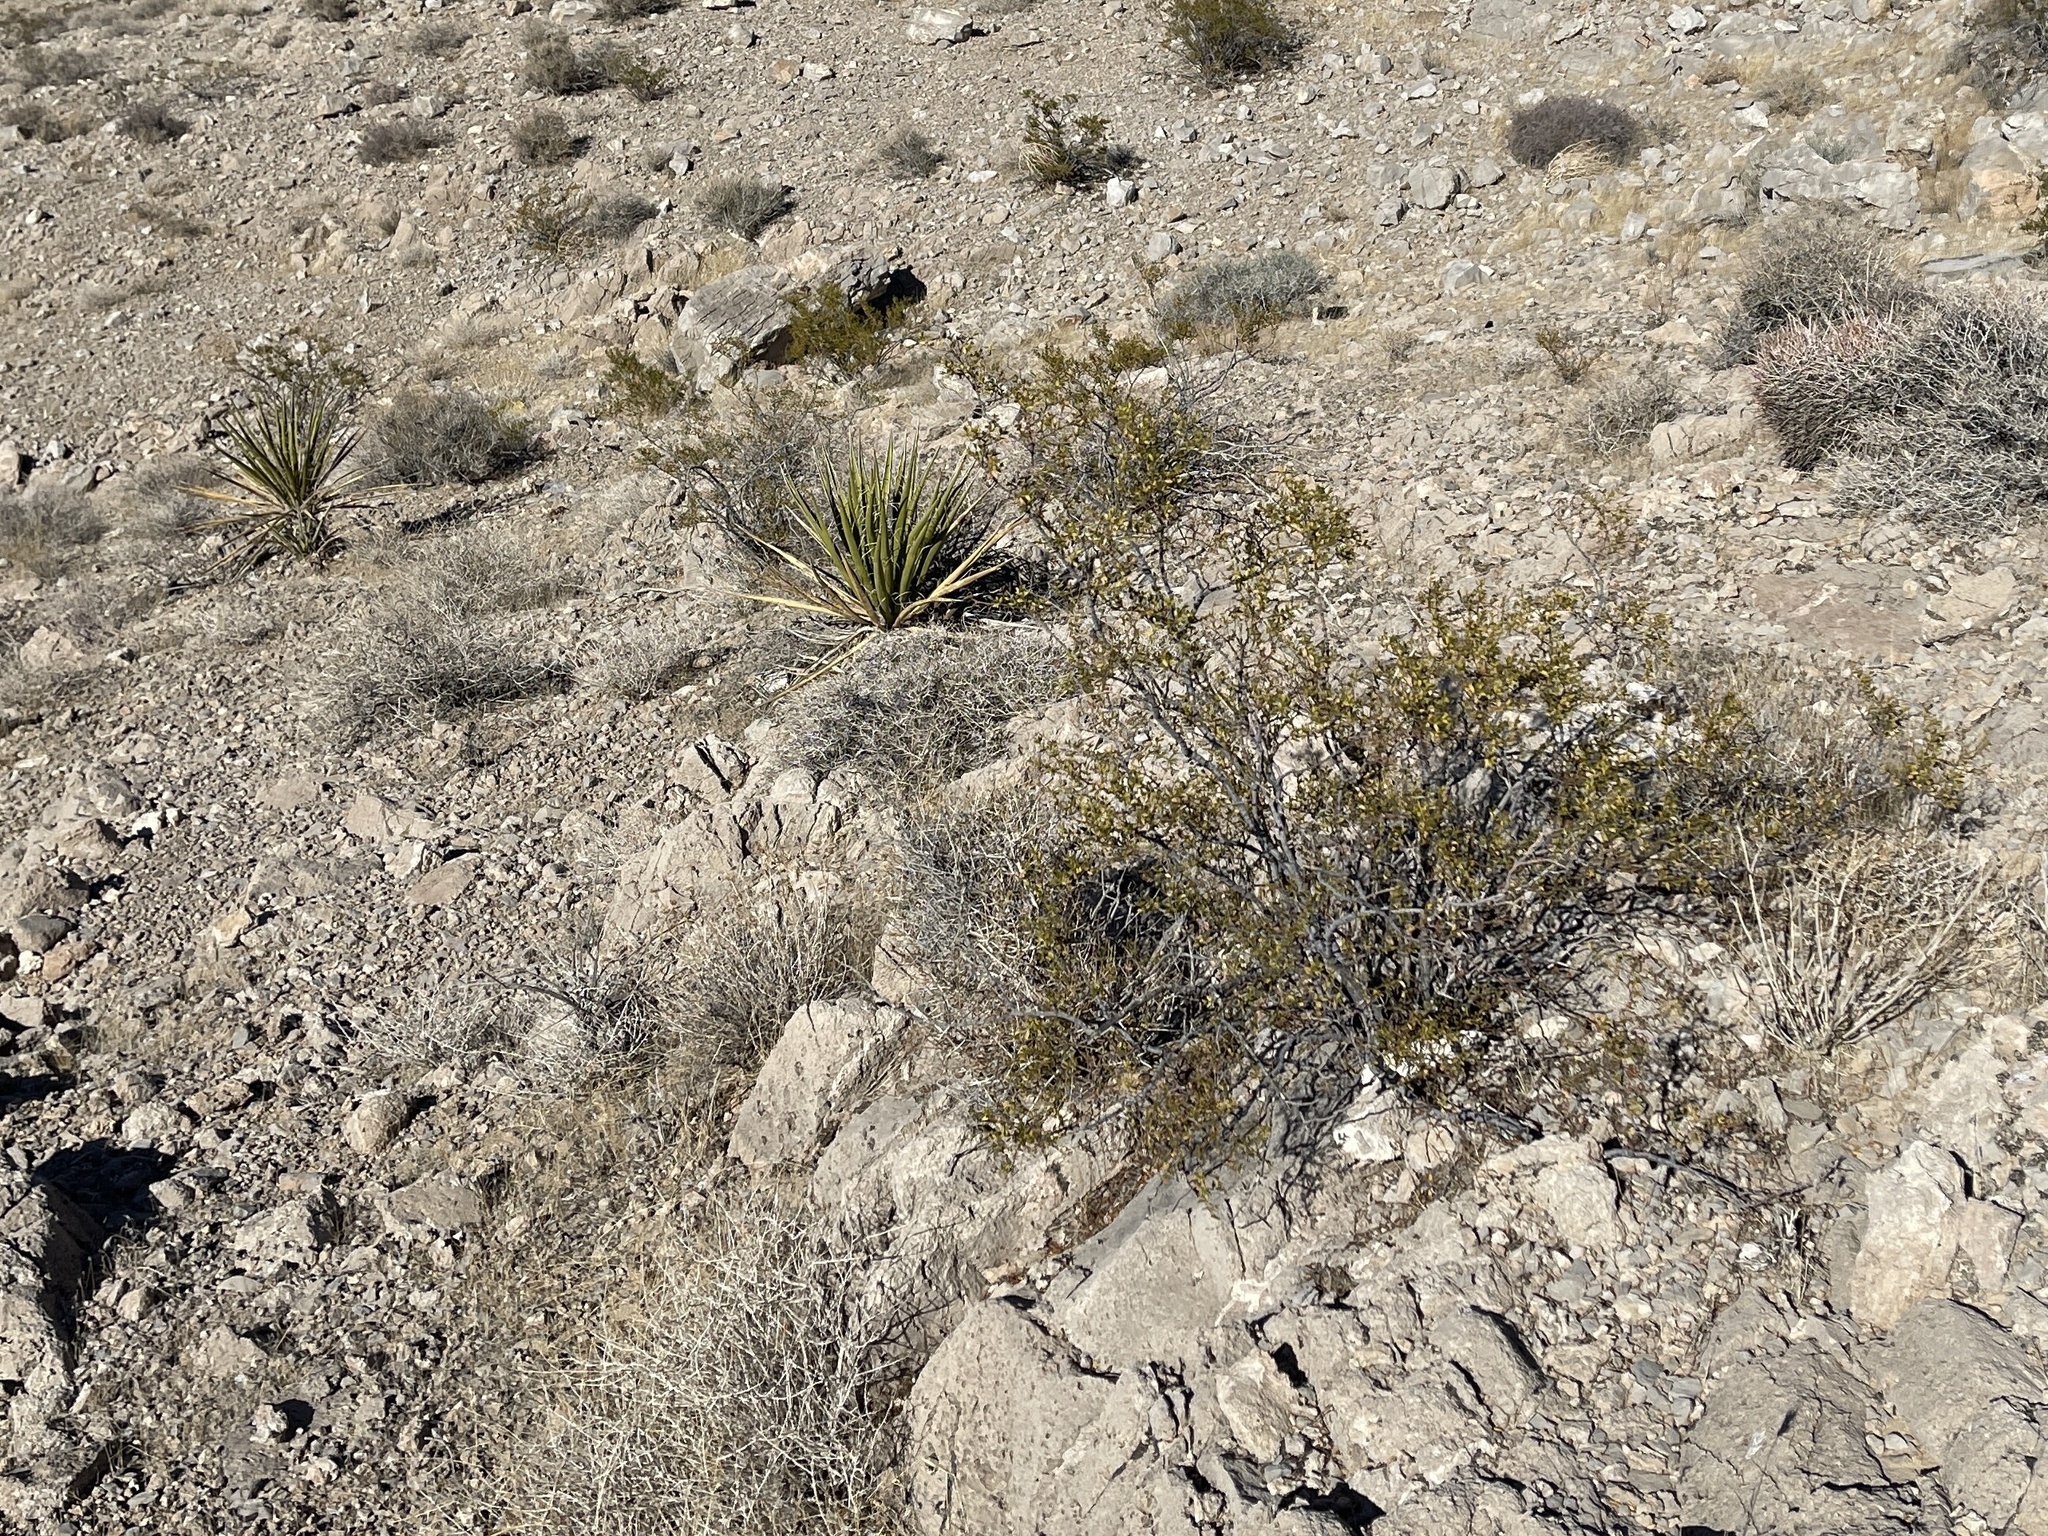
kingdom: Plantae
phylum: Tracheophyta
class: Magnoliopsida
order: Zygophyllales
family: Zygophyllaceae
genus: Larrea
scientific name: Larrea tridentata
